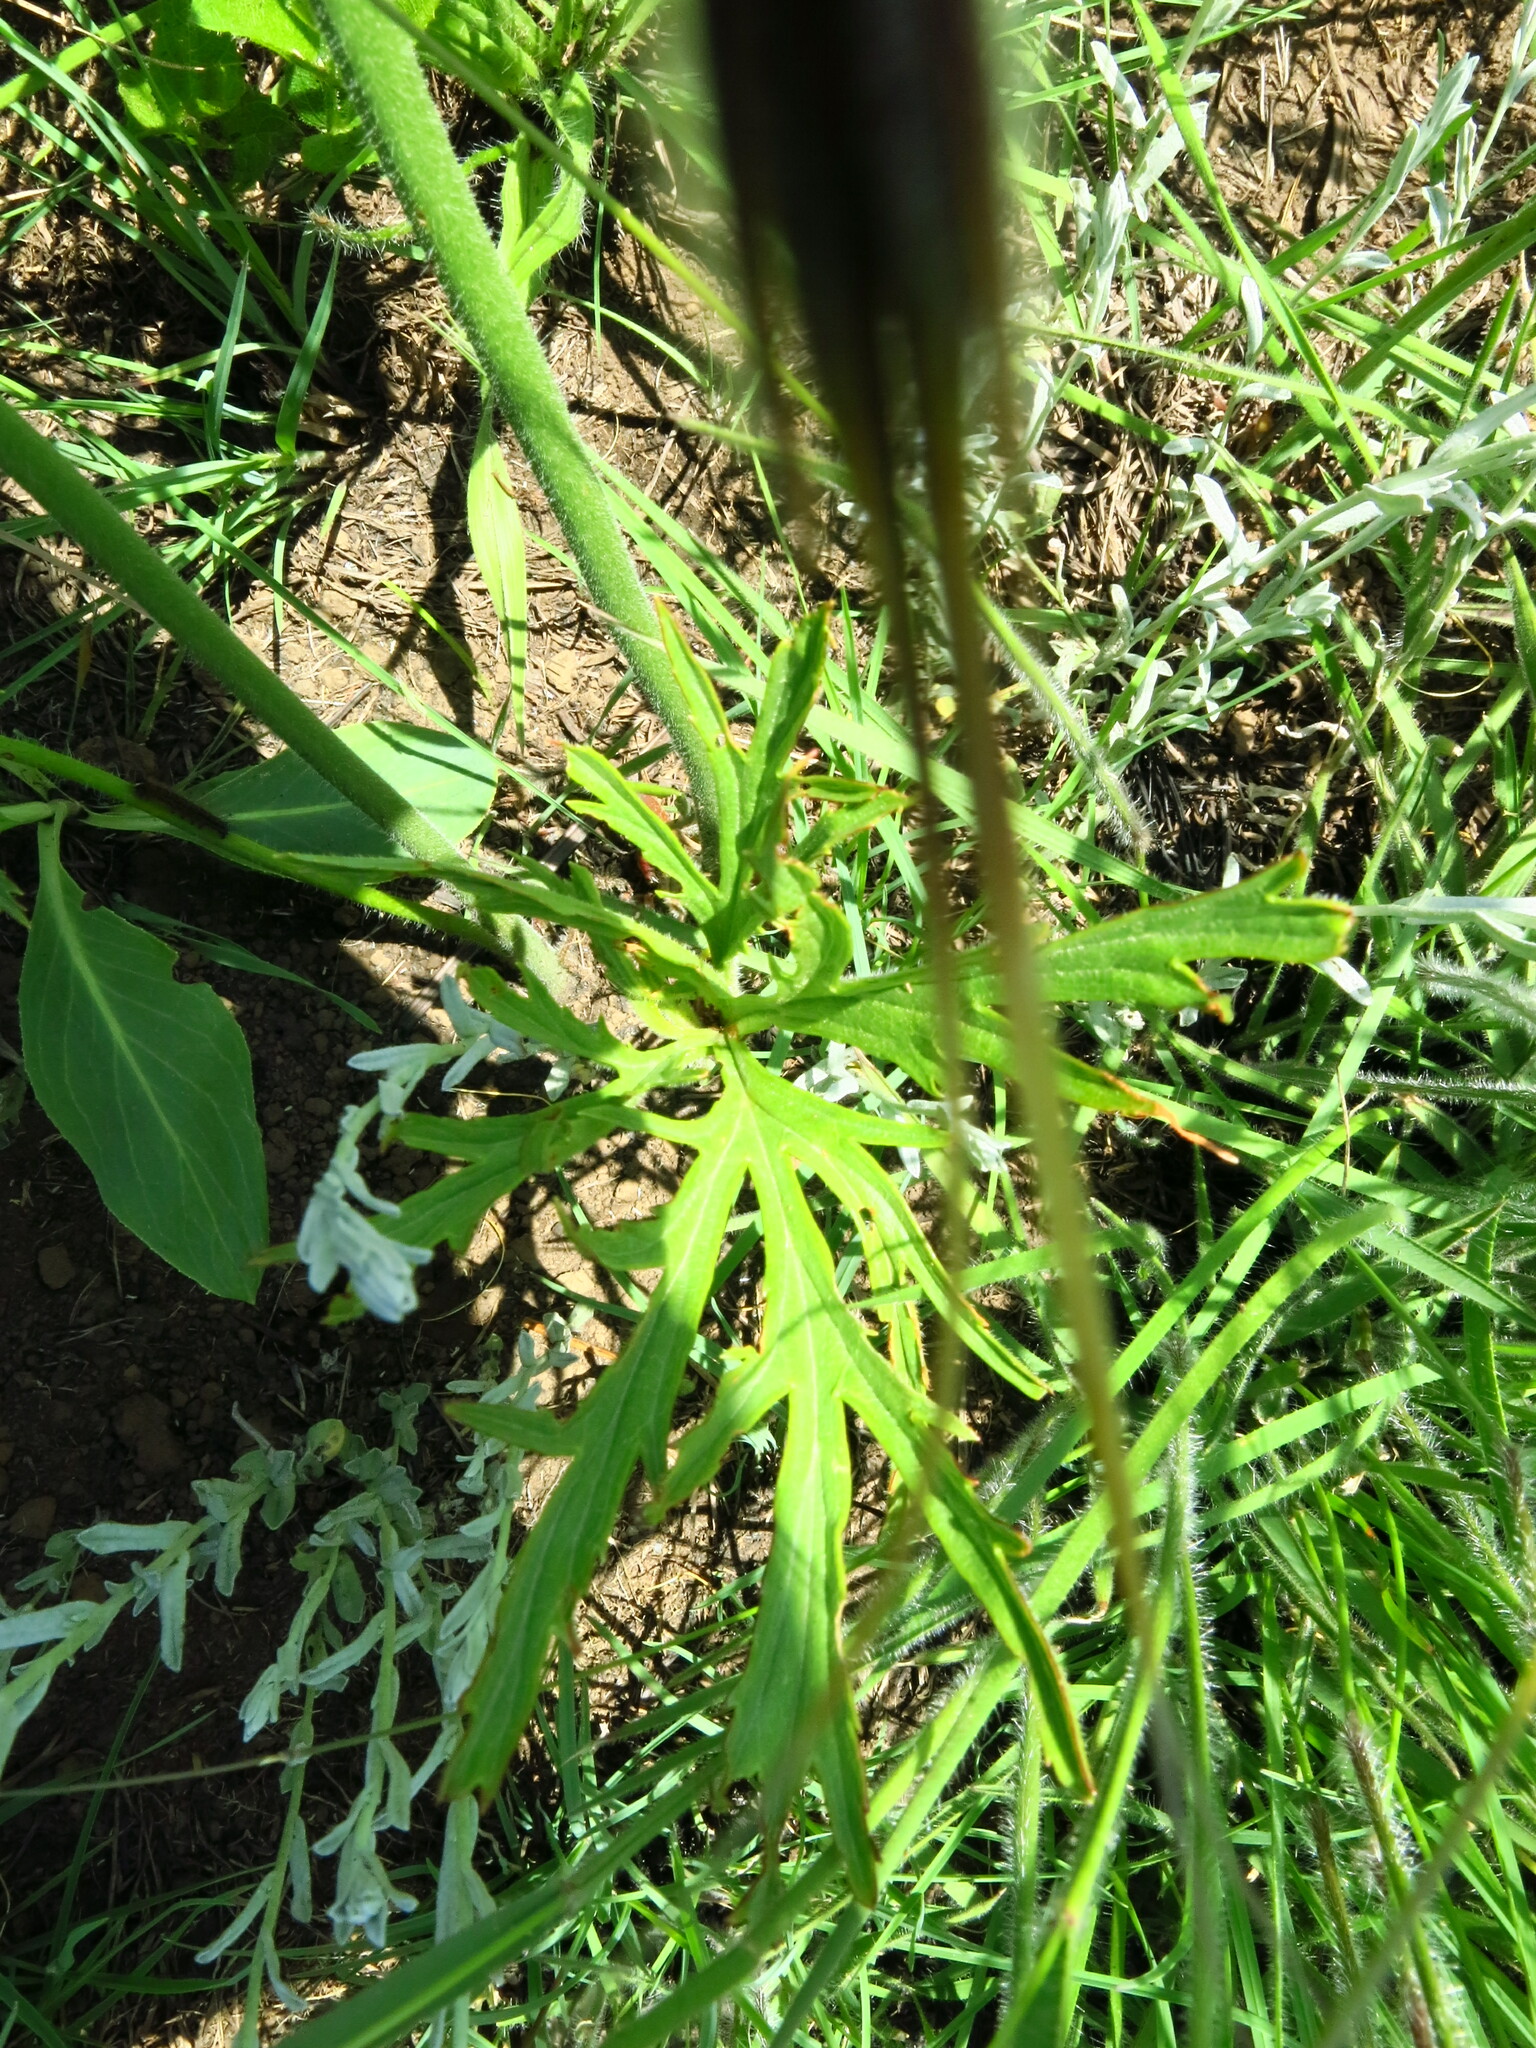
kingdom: Plantae
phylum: Tracheophyta
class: Magnoliopsida
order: Geraniales
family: Geraniaceae
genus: Pelargonium
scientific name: Pelargonium luridum
